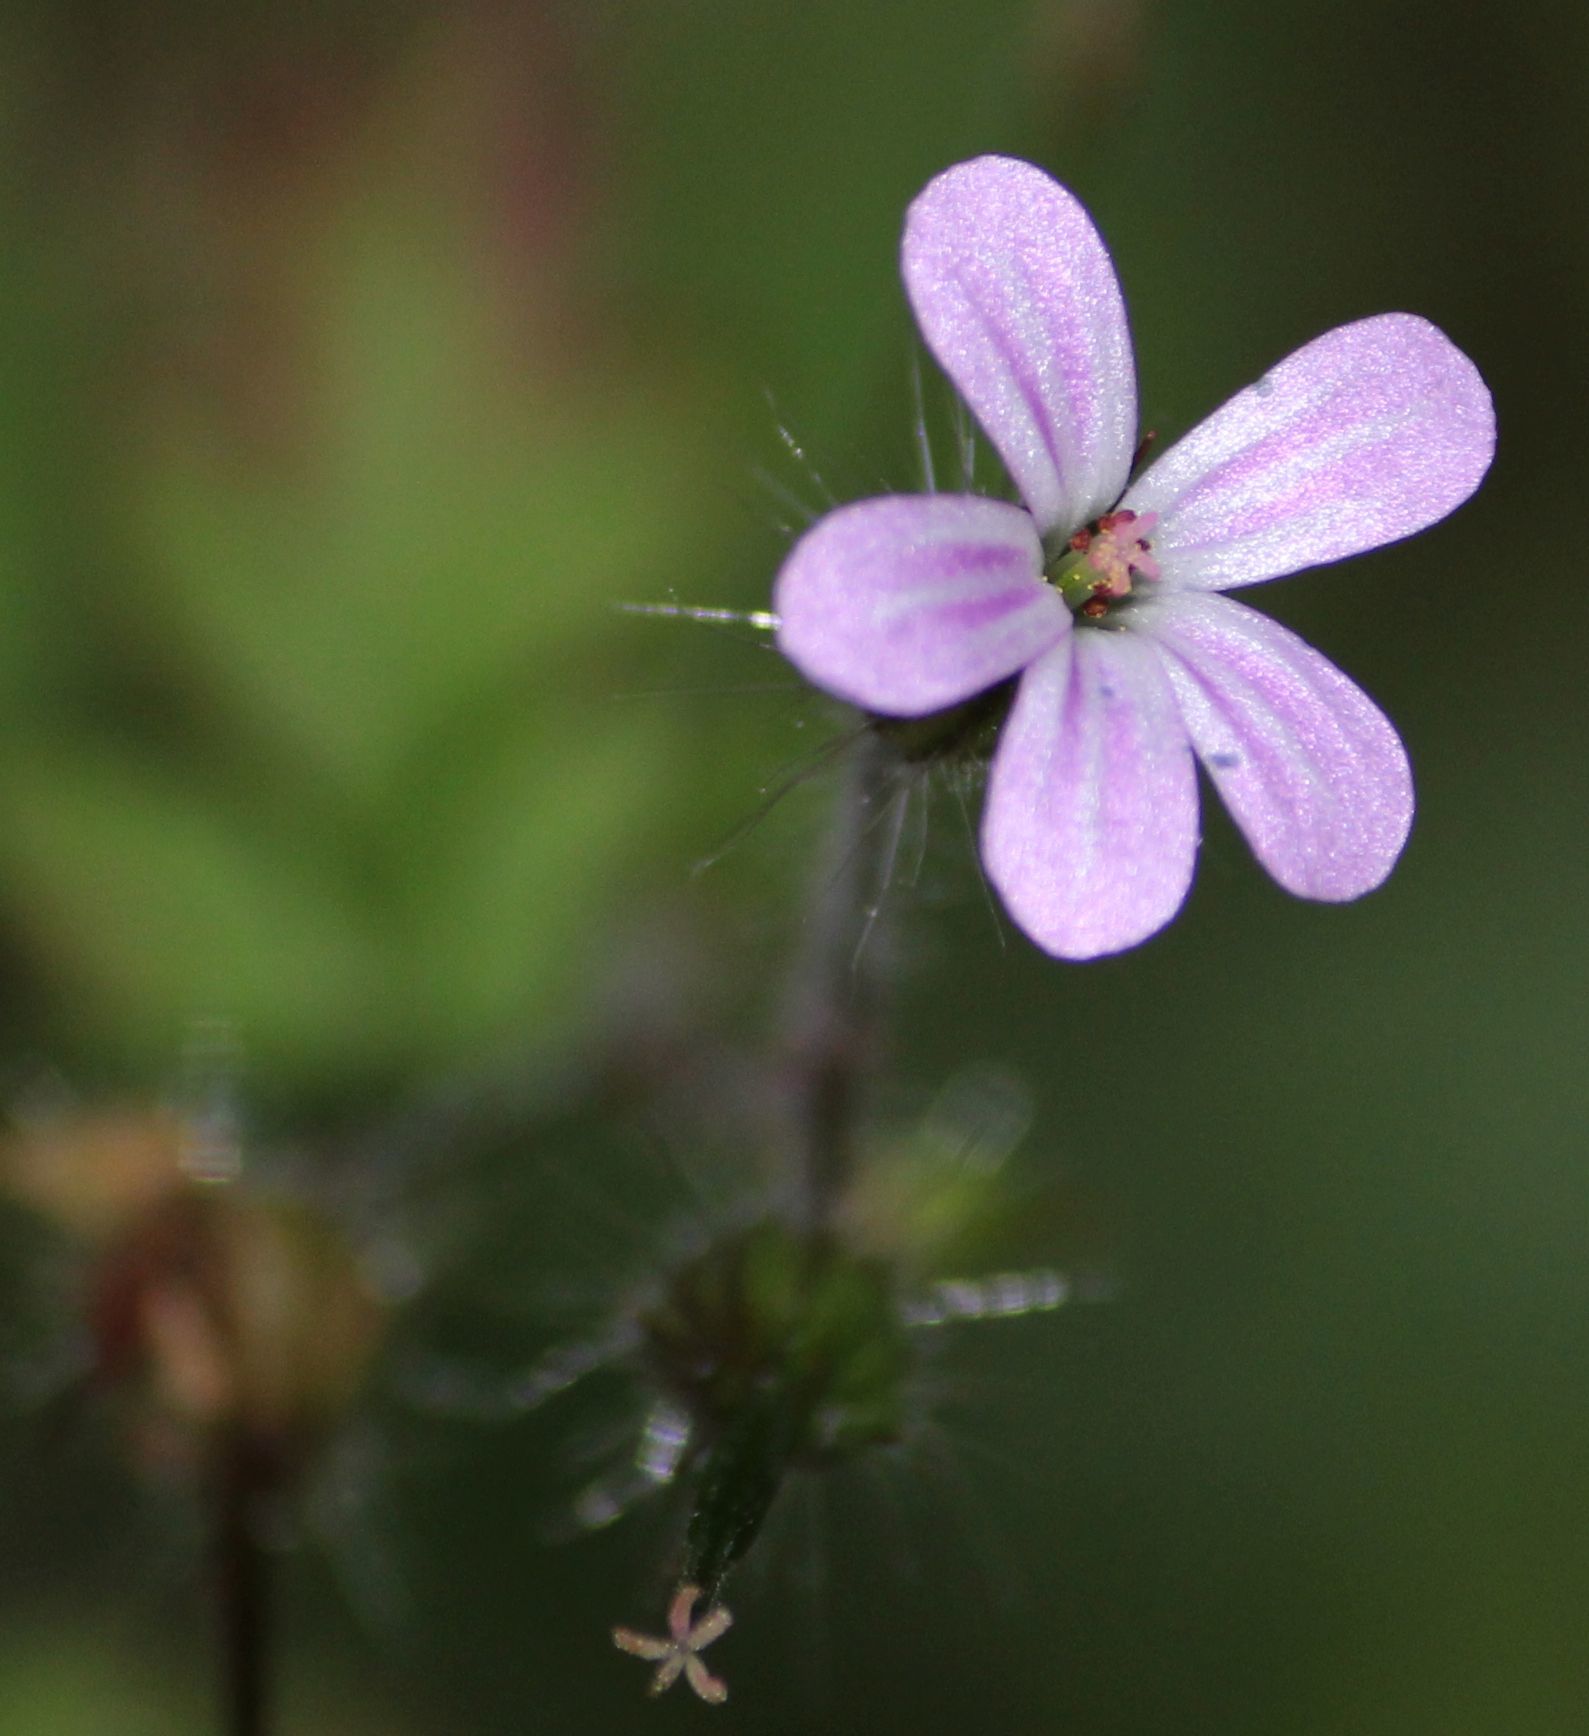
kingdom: Plantae
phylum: Tracheophyta
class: Magnoliopsida
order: Geraniales
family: Geraniaceae
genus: Geranium
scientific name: Geranium robertianum
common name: Herb-robert
